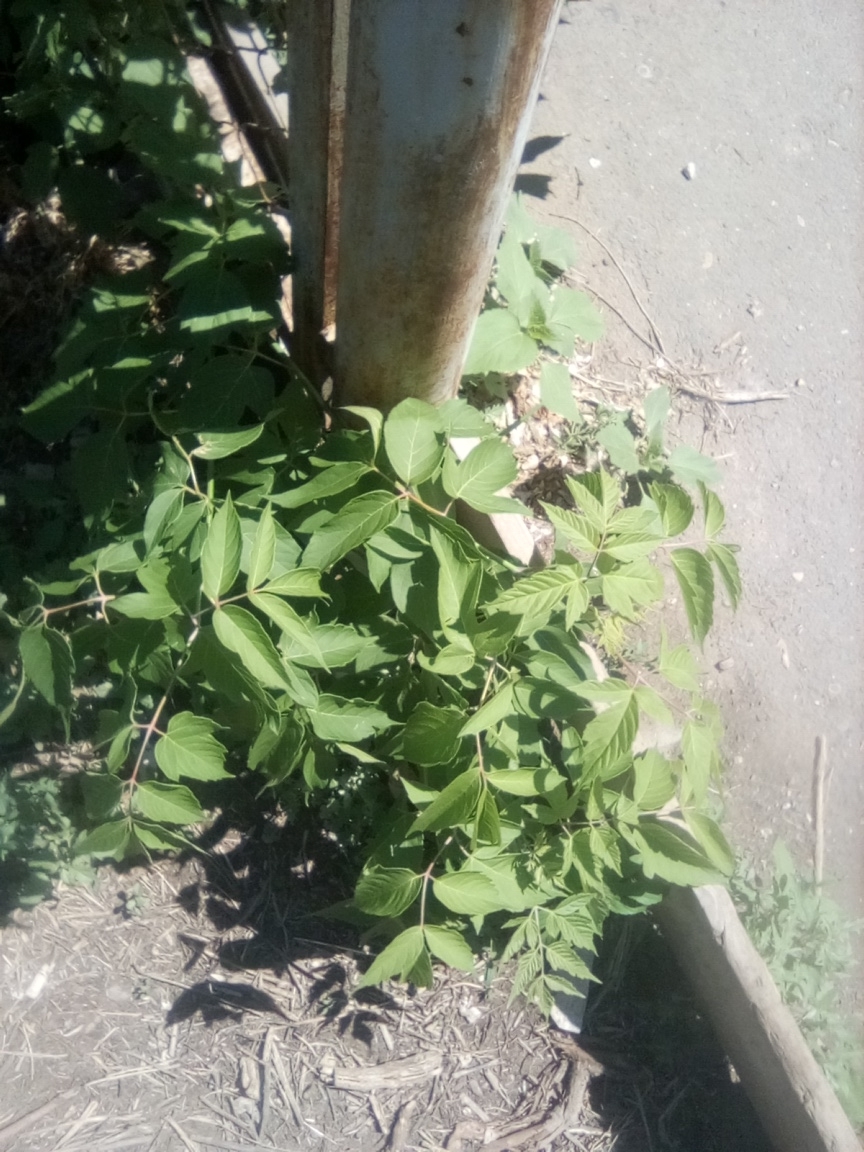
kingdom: Plantae
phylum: Tracheophyta
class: Magnoliopsida
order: Sapindales
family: Sapindaceae
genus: Acer
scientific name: Acer negundo
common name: Ashleaf maple
